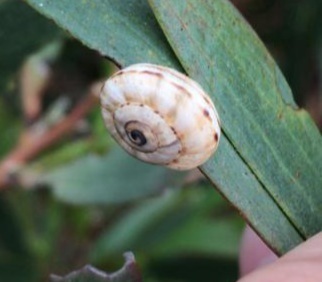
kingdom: Animalia
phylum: Mollusca
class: Gastropoda
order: Stylommatophora
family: Helicidae
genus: Theba
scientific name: Theba pisana
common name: White snail
